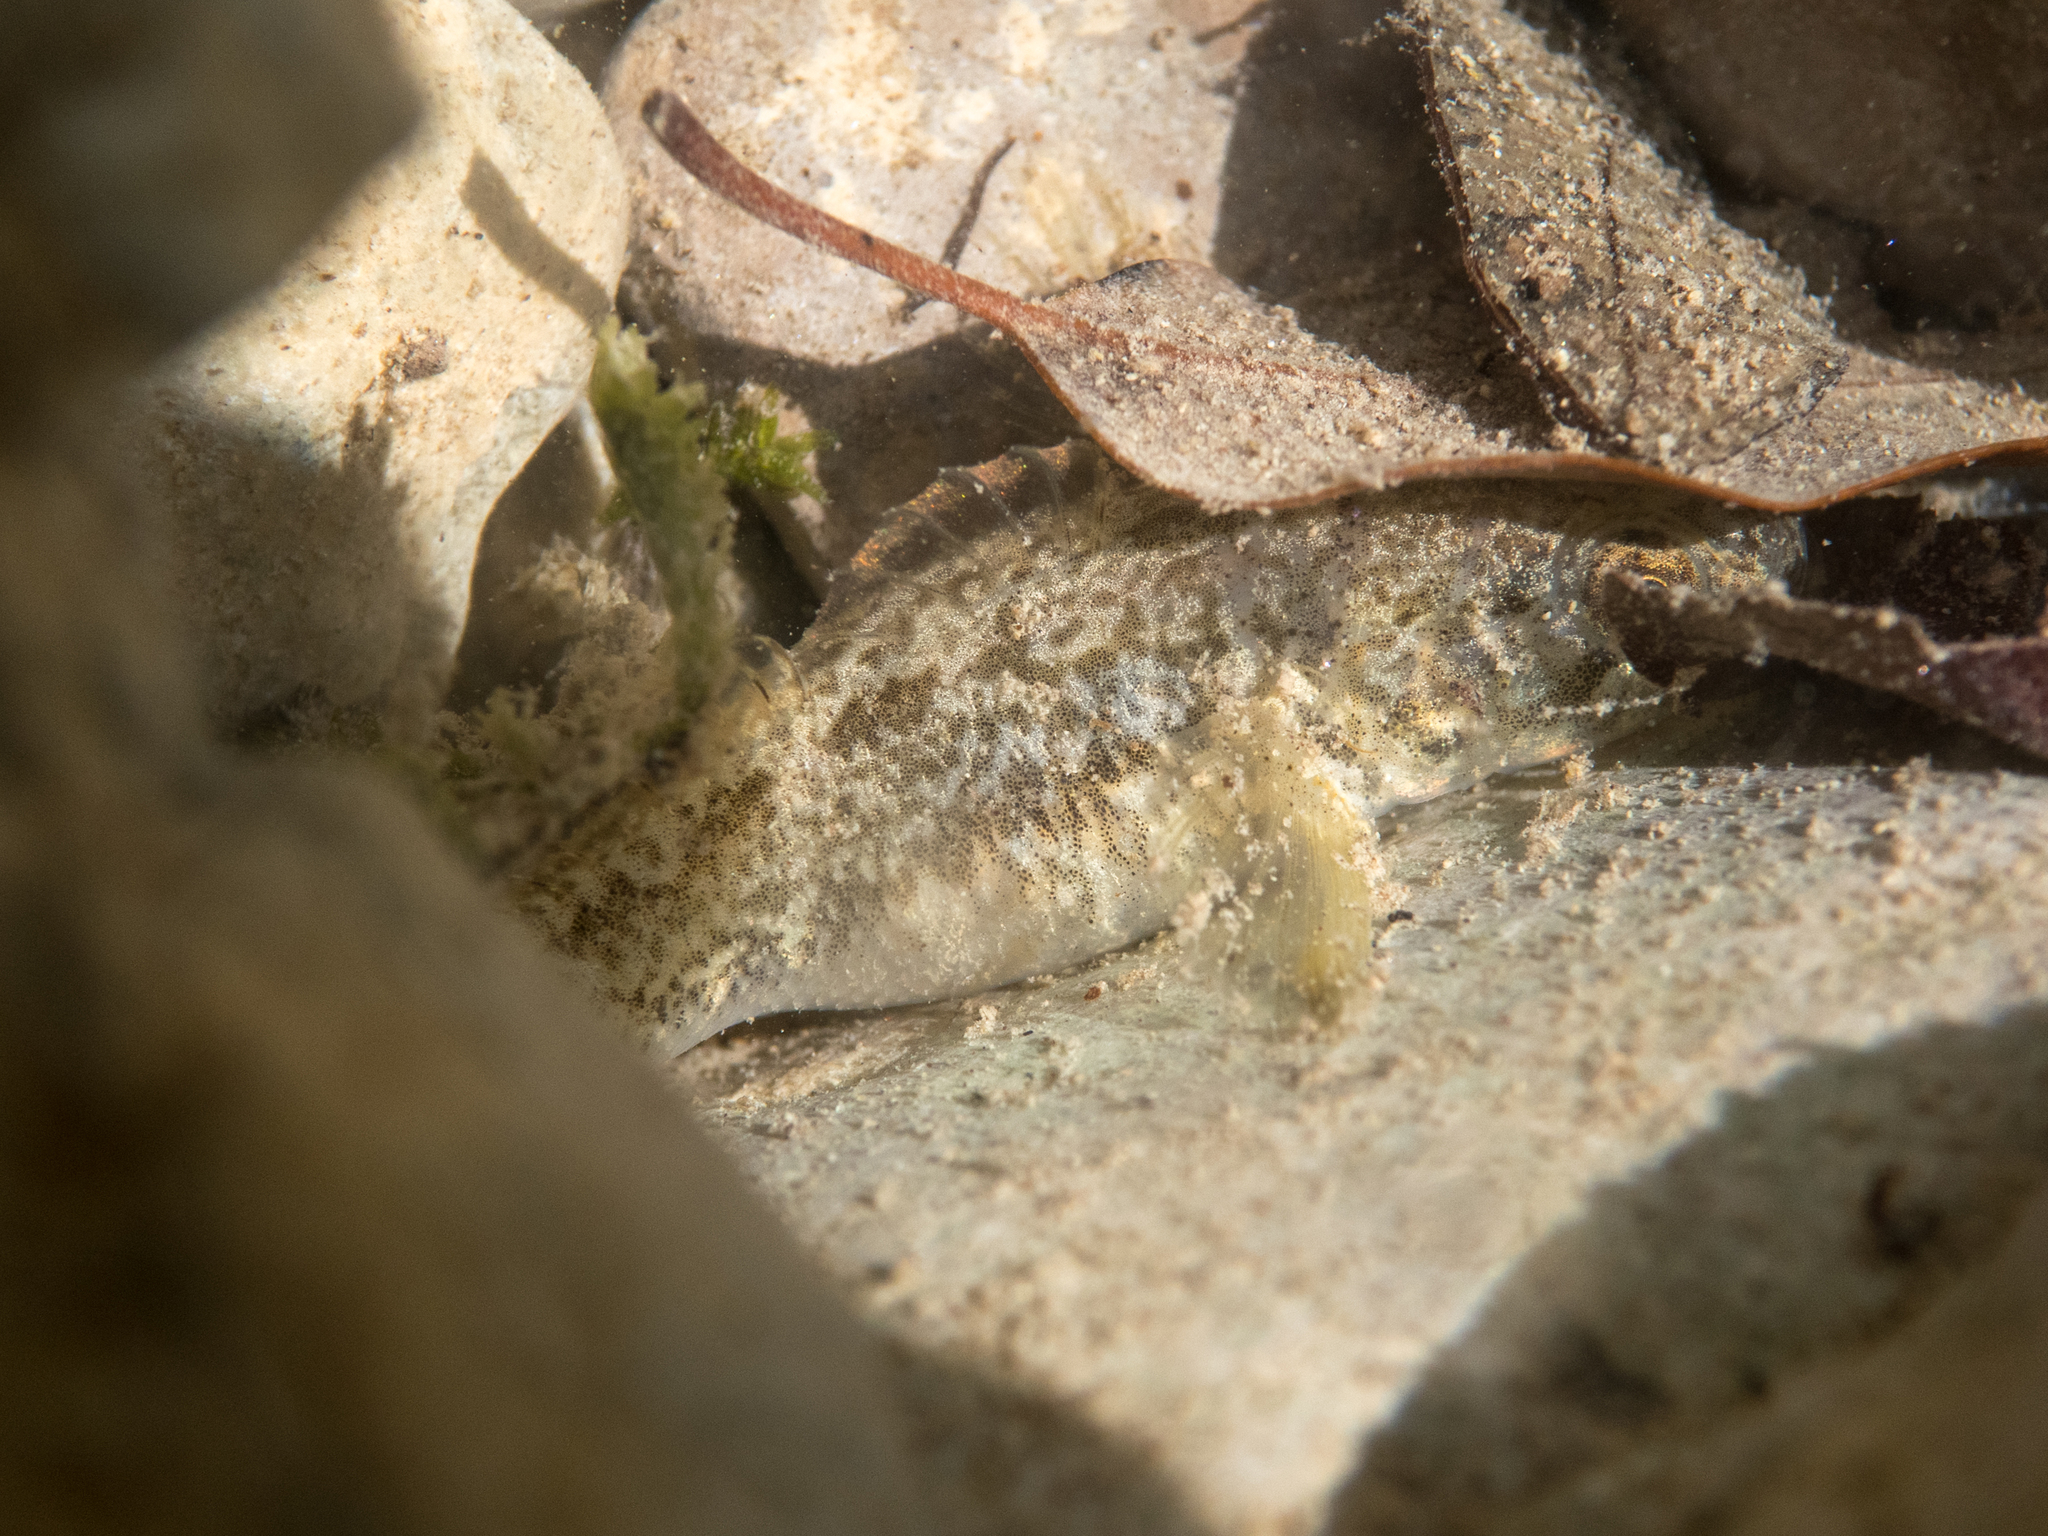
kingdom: Animalia
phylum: Chordata
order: Perciformes
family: Gobiidae
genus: Padogobius
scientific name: Padogobius bonelli
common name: Padanian goby
